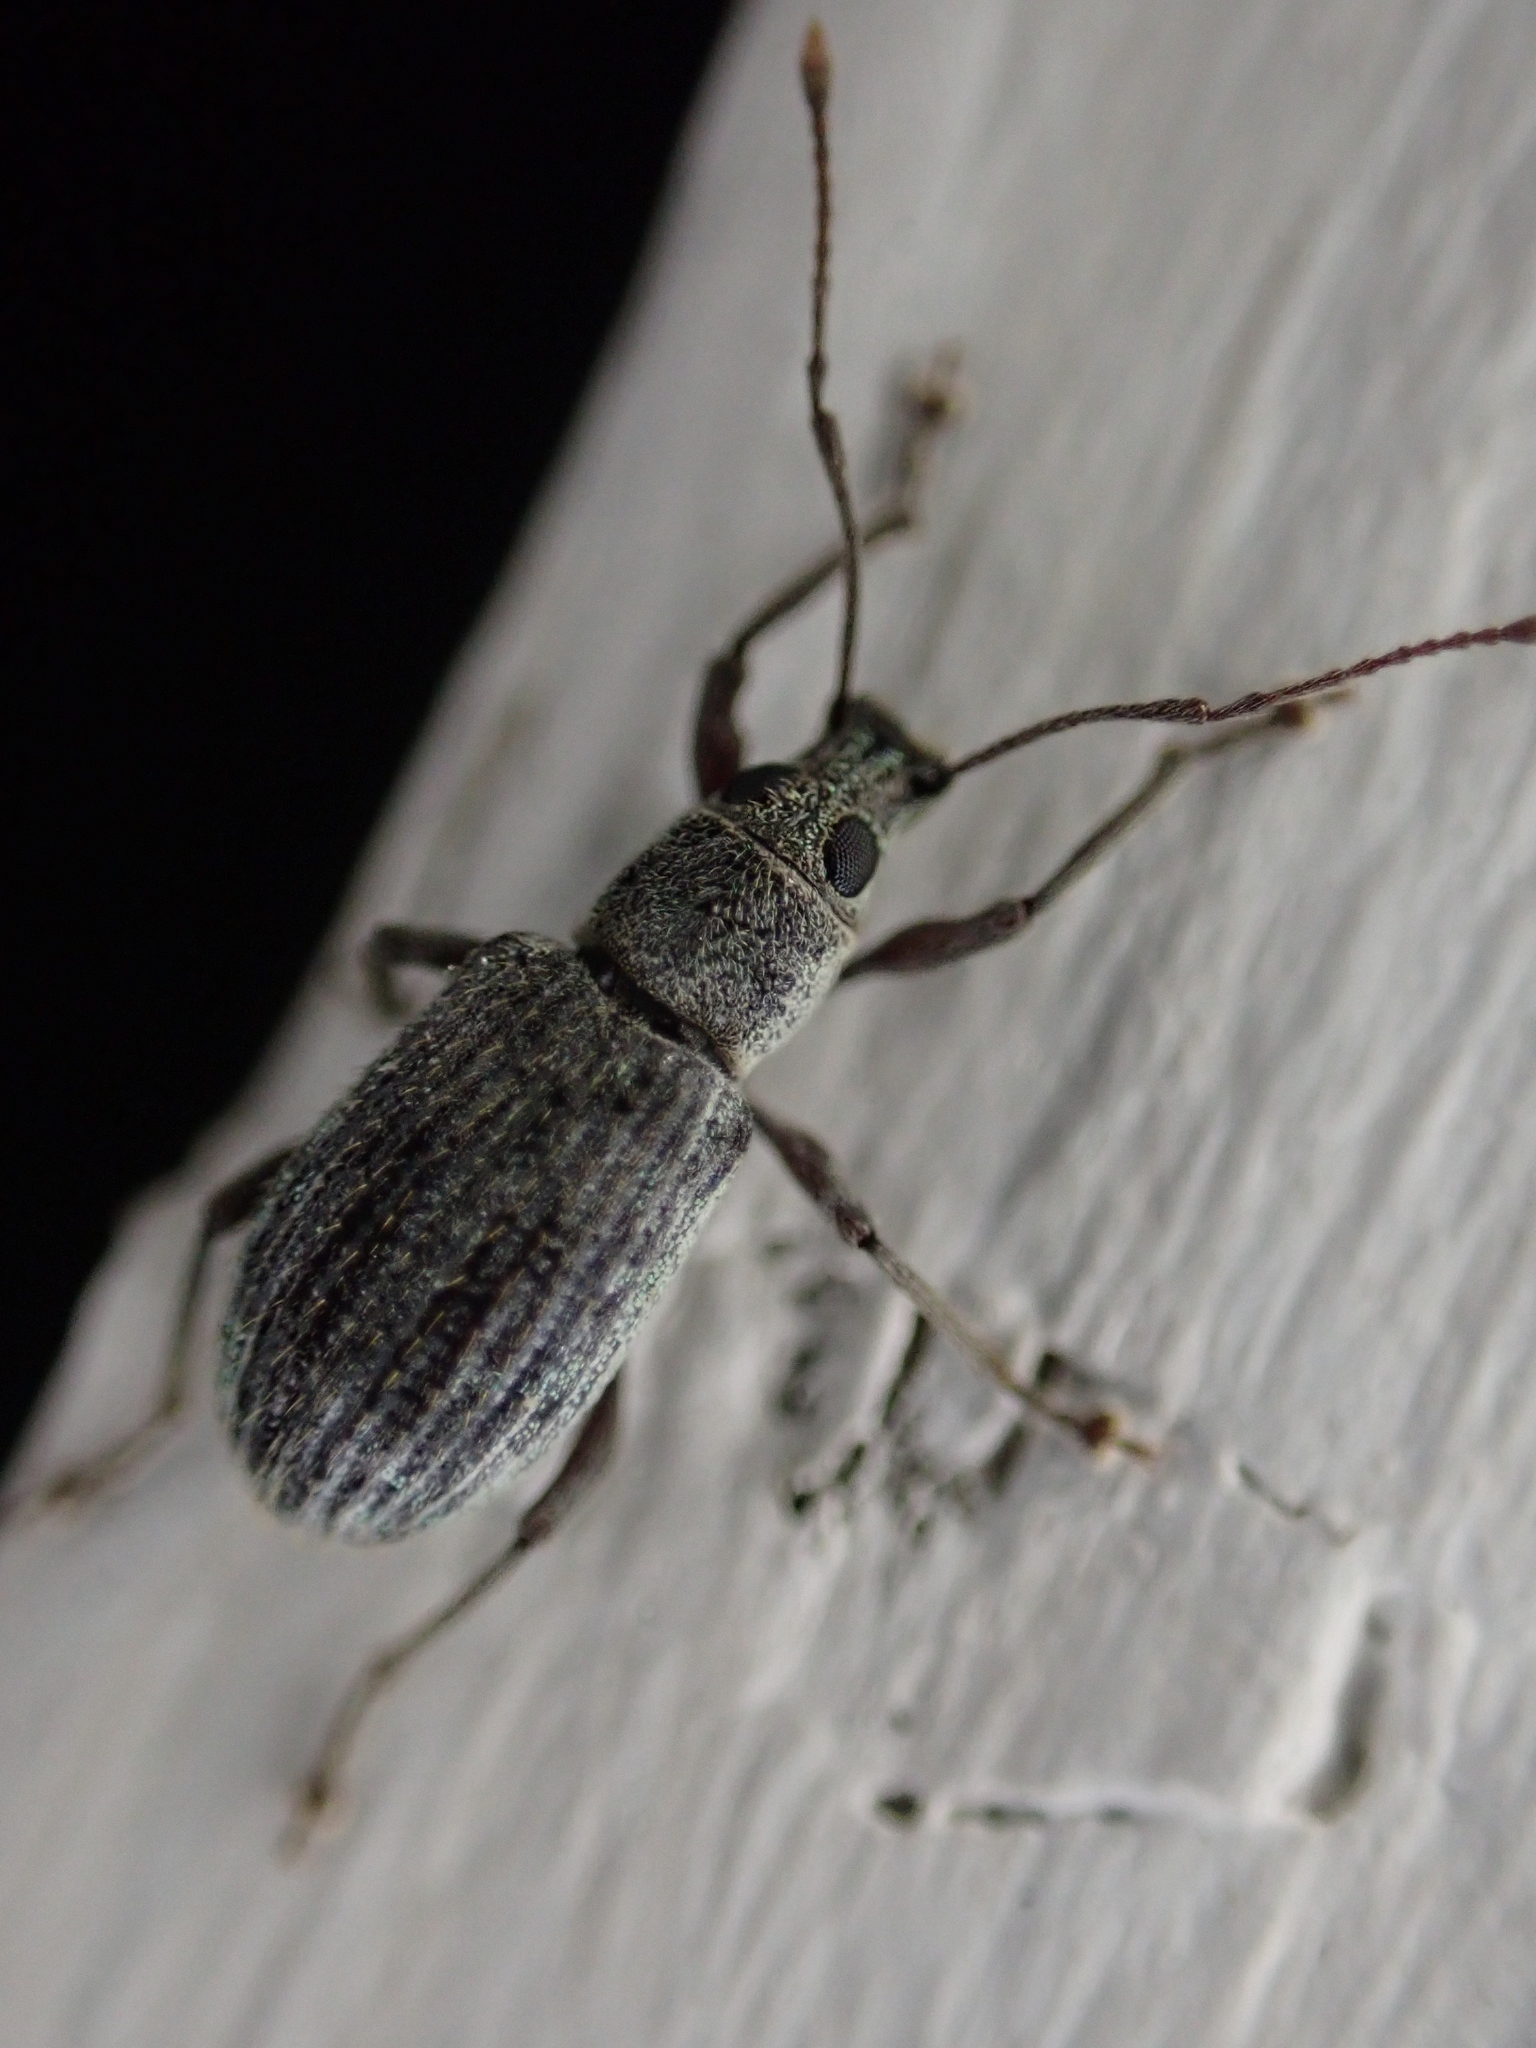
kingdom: Animalia
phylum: Arthropoda
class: Insecta
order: Coleoptera
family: Curculionidae
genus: Cyrtepistomus
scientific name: Cyrtepistomus castaneus
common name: Weevil
